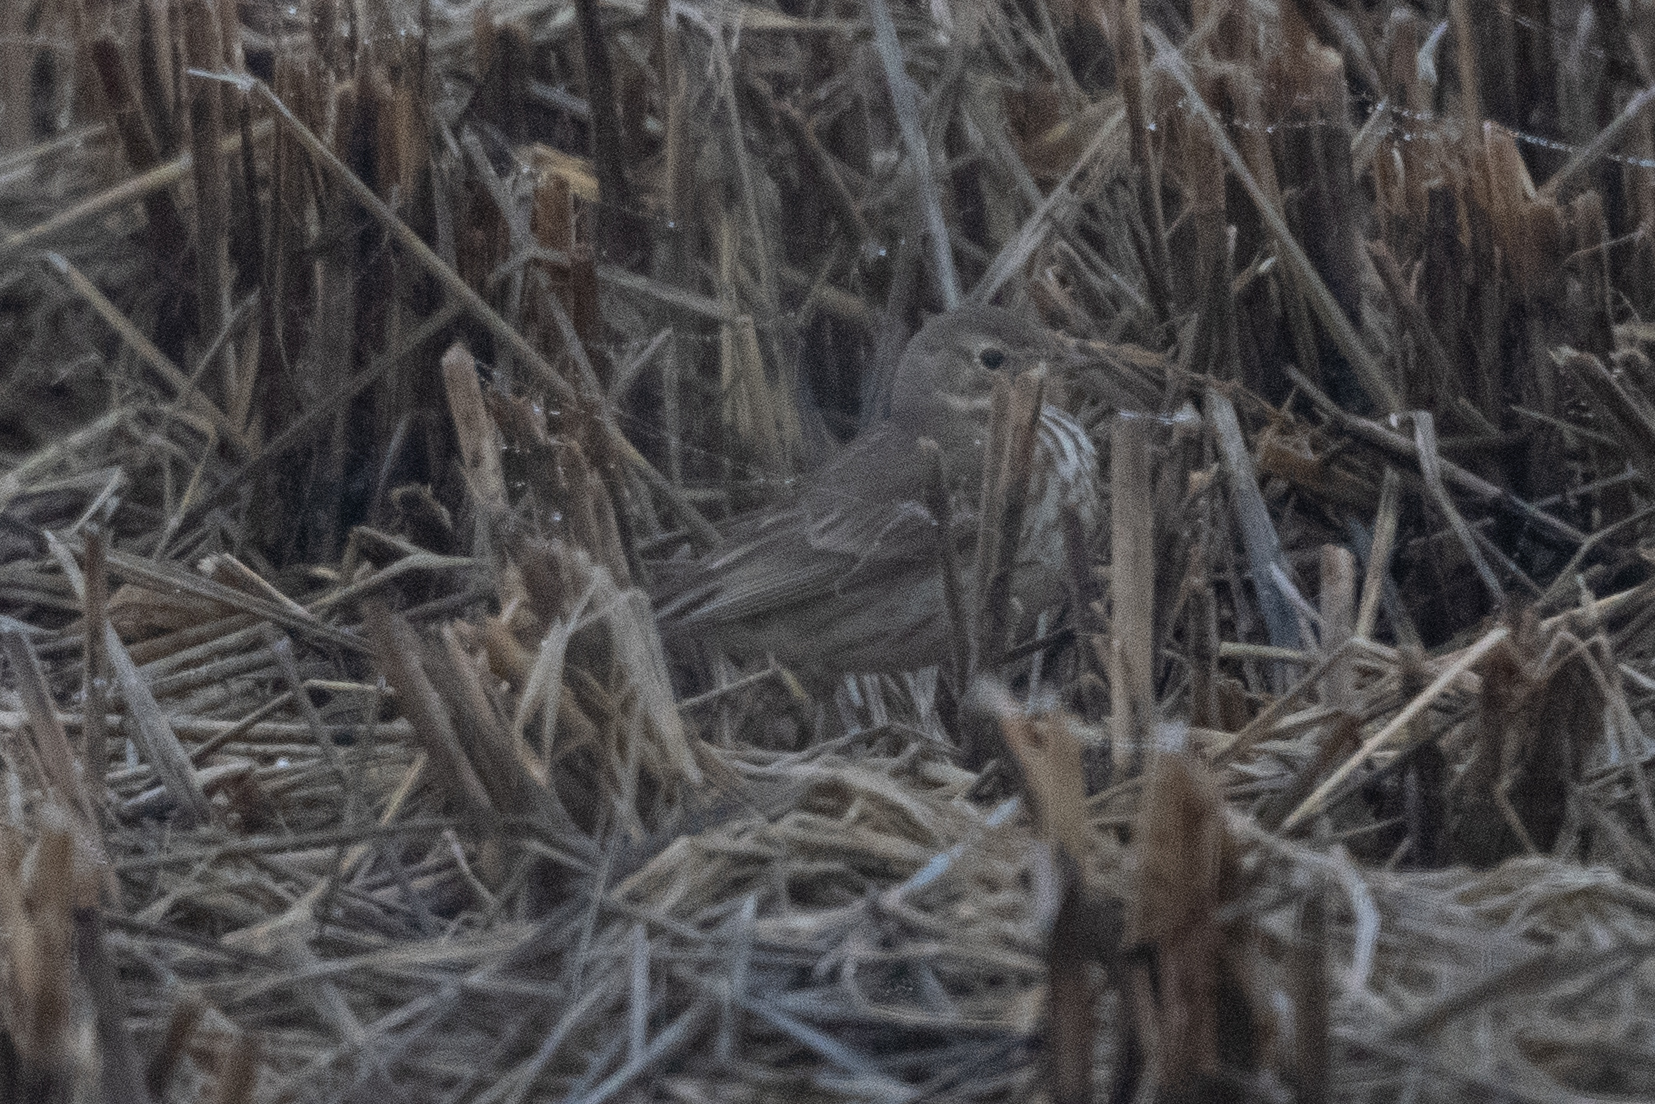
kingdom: Animalia
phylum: Chordata
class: Aves
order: Passeriformes
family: Motacillidae
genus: Anthus
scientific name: Anthus rubescens
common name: Buff-bellied pipit
